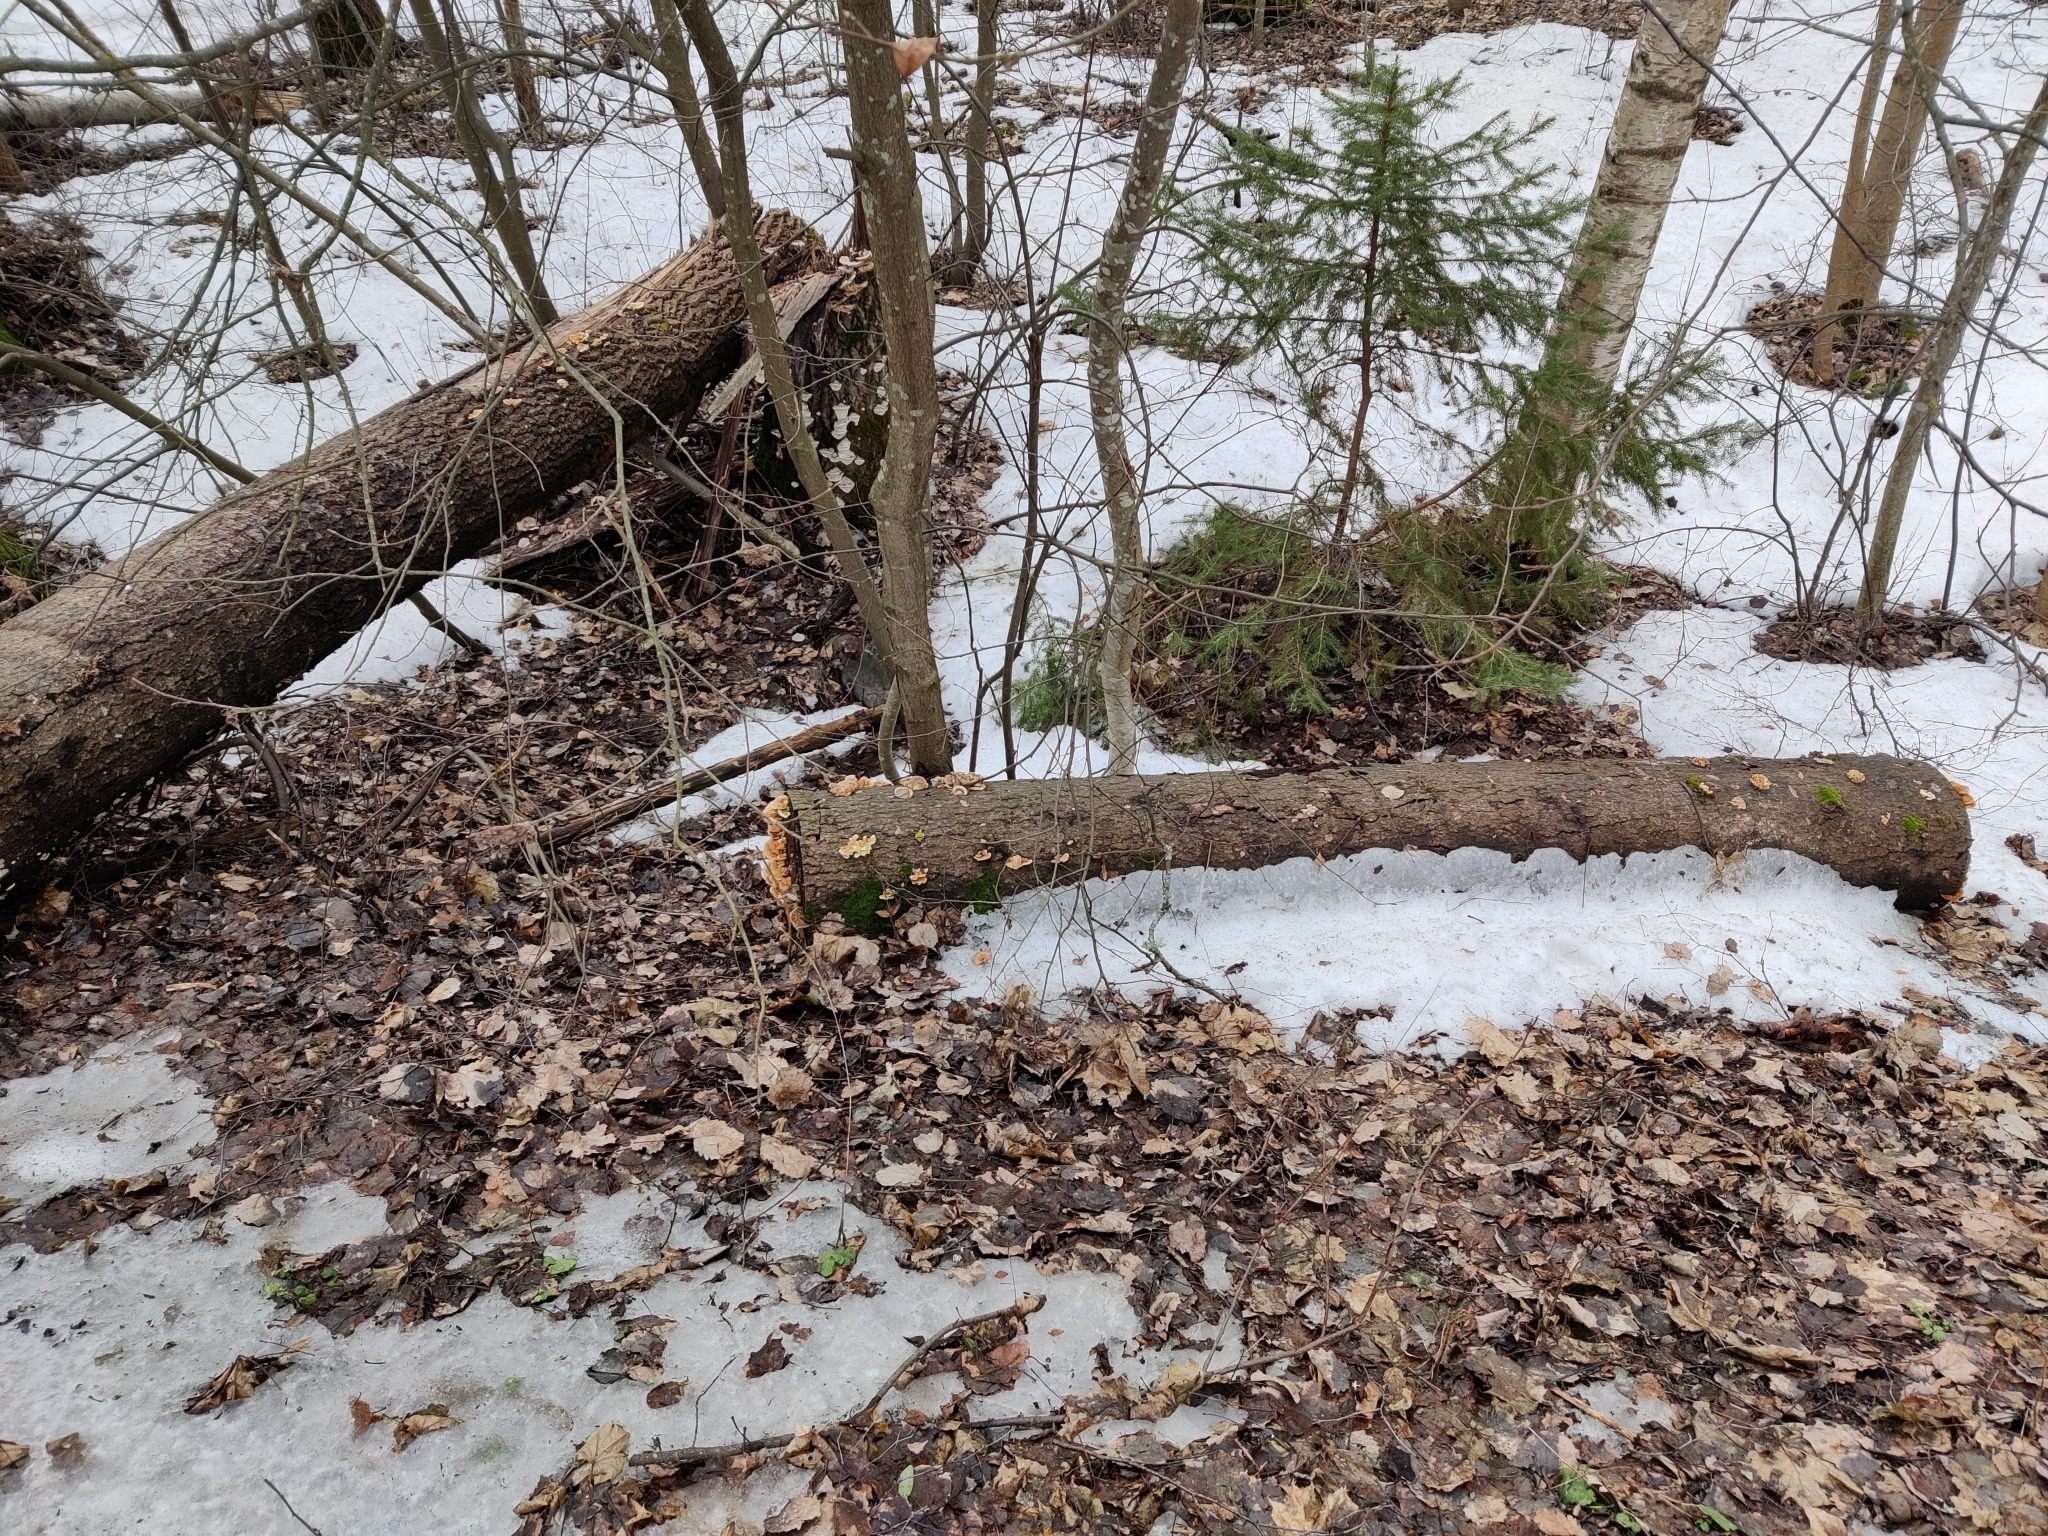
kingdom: Fungi
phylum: Basidiomycota
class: Agaricomycetes
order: Polyporales
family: Polyporaceae
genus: Trametes
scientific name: Trametes ochracea
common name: Ochre bracket
